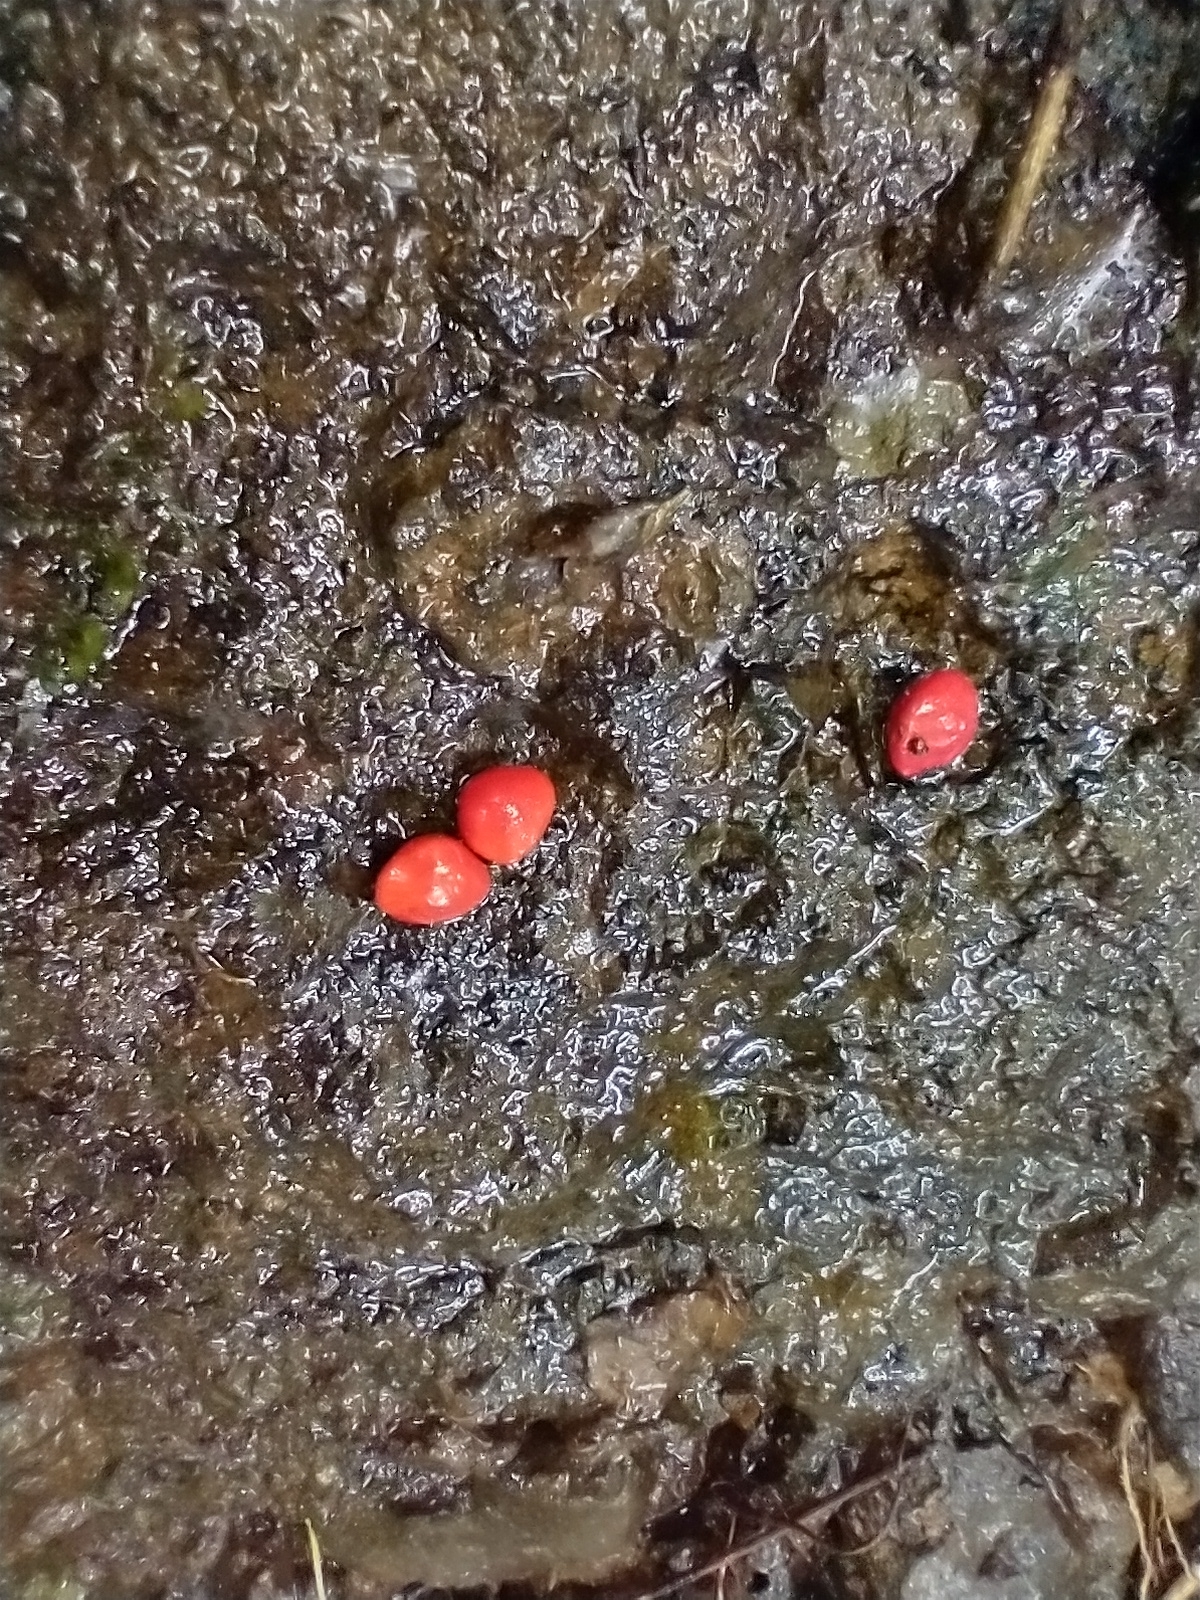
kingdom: Plantae
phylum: Tracheophyta
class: Magnoliopsida
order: Fabales
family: Fabaceae
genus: Adenanthera
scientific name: Adenanthera pavonina
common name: Red beadtree
